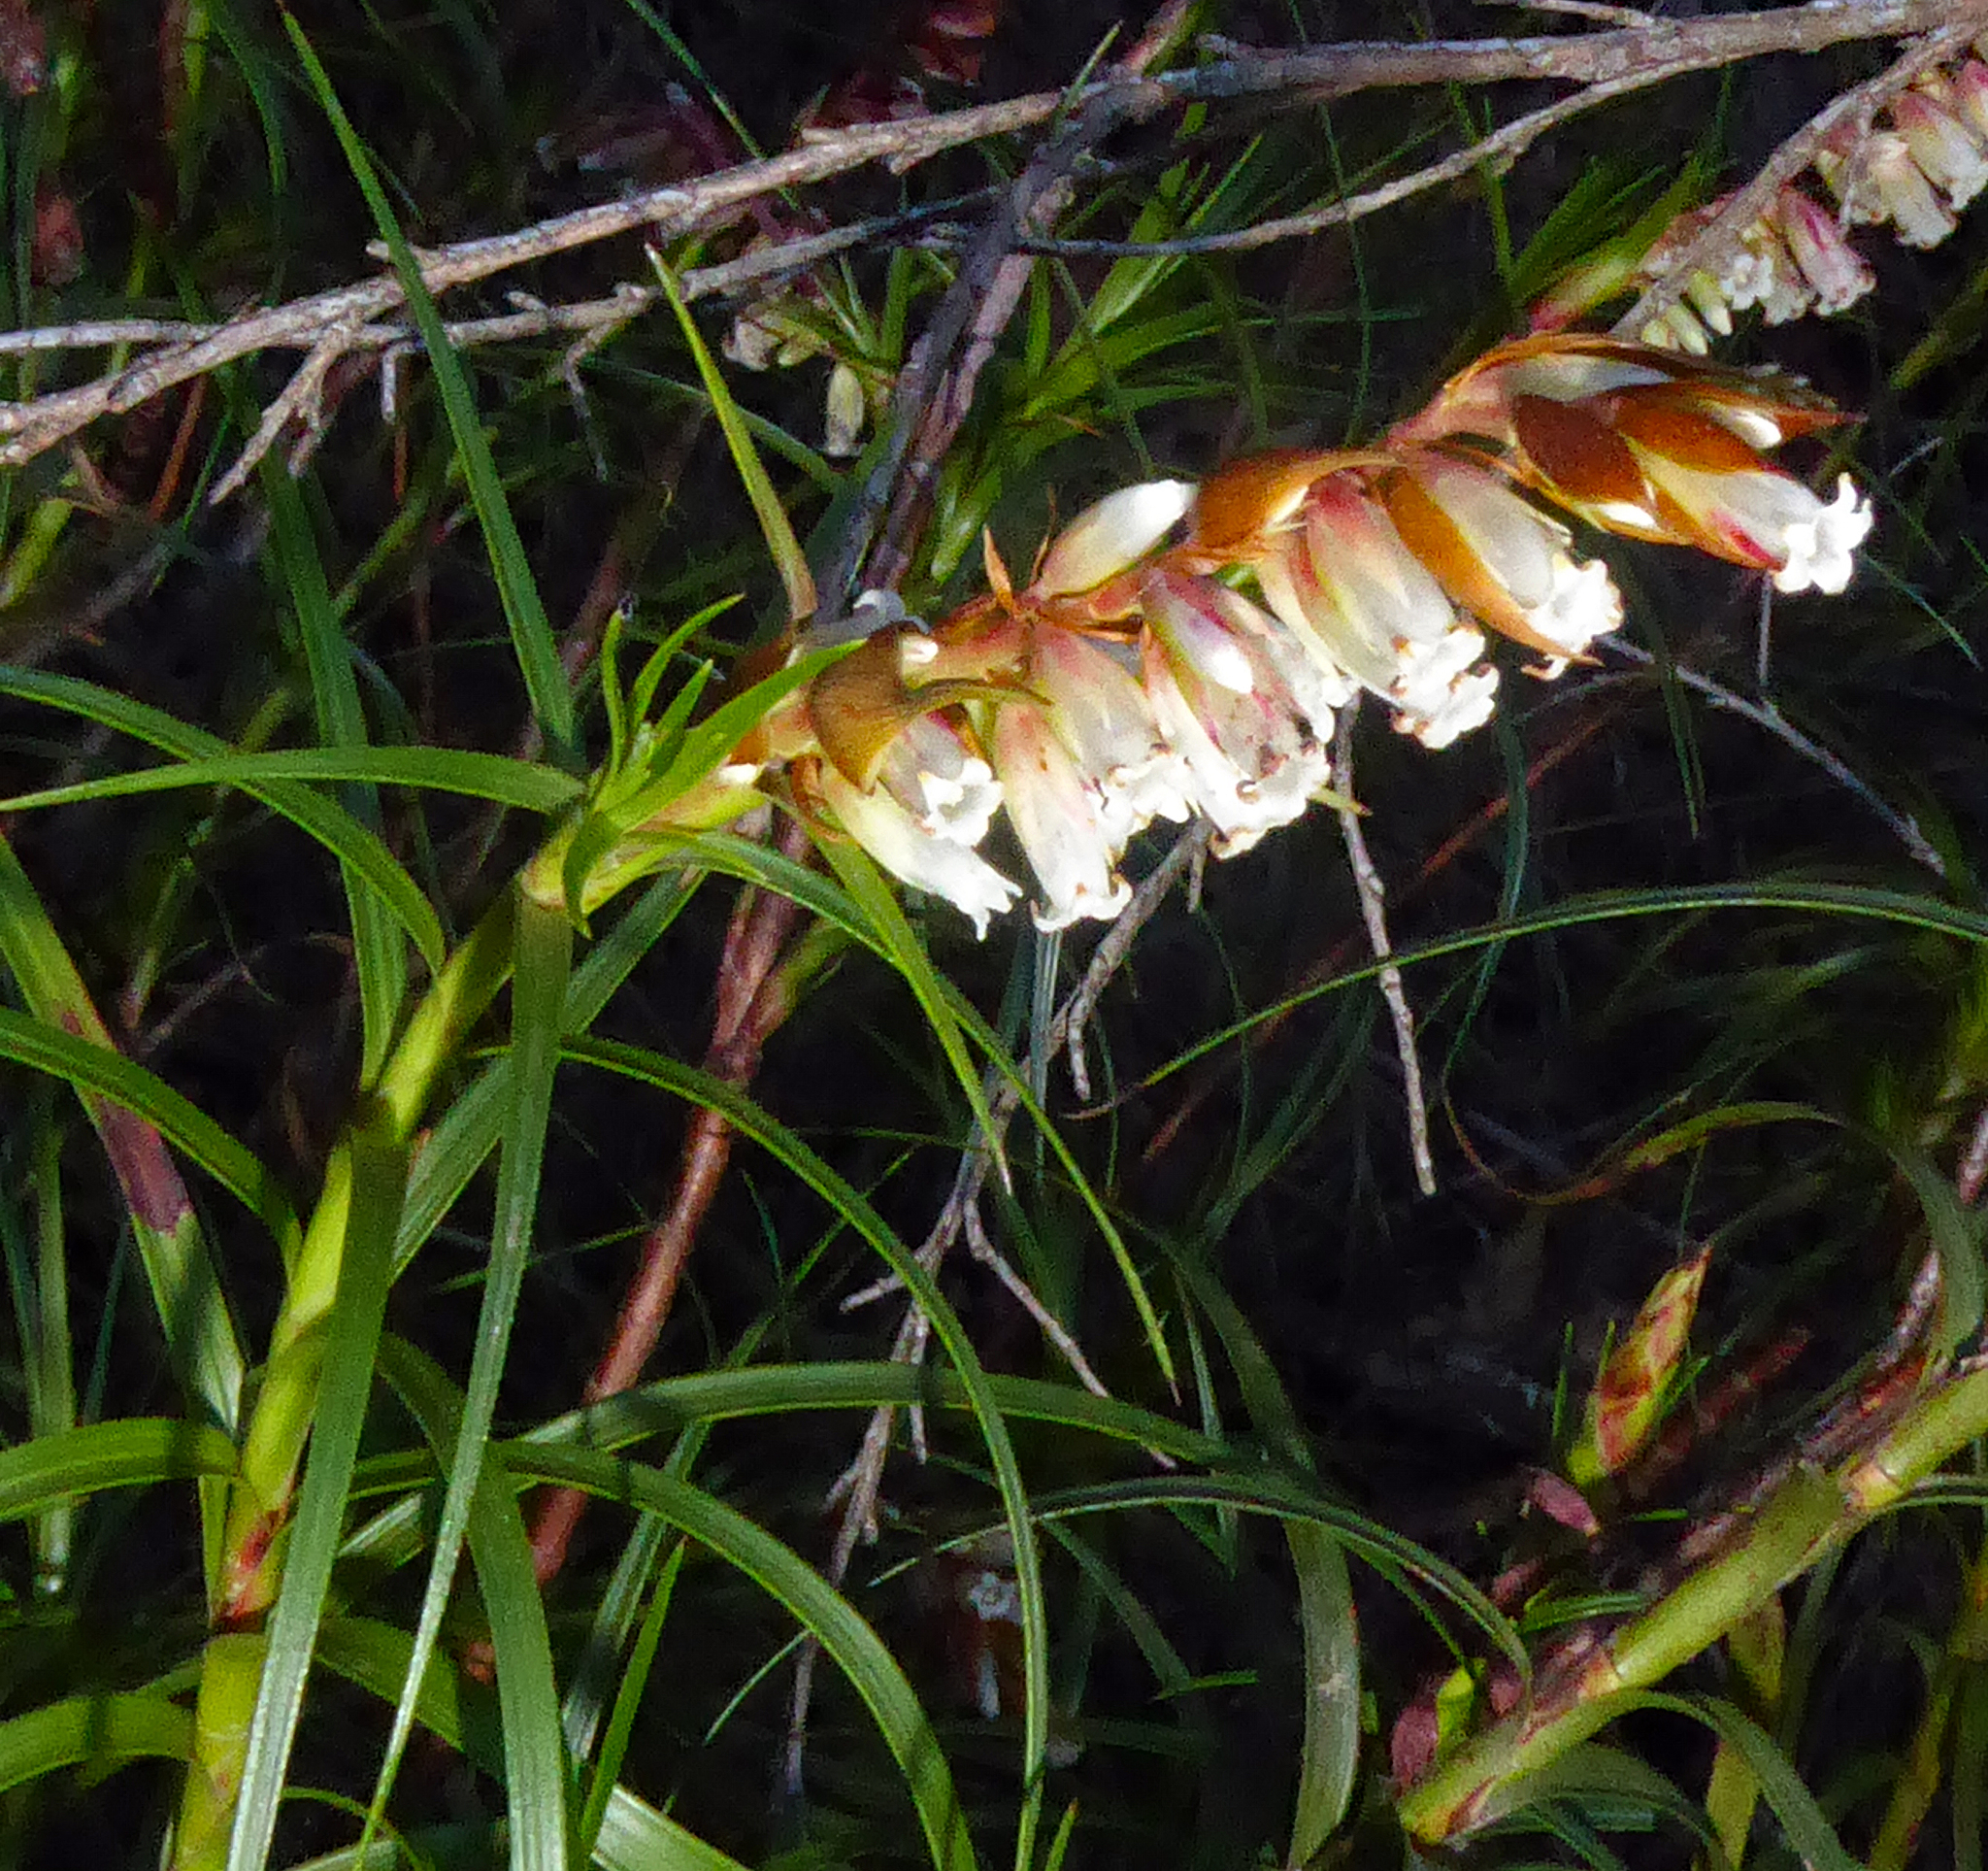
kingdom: Plantae
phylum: Tracheophyta
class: Magnoliopsida
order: Ericales
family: Ericaceae
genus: Dracophyllum
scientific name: Dracophyllum secundum
